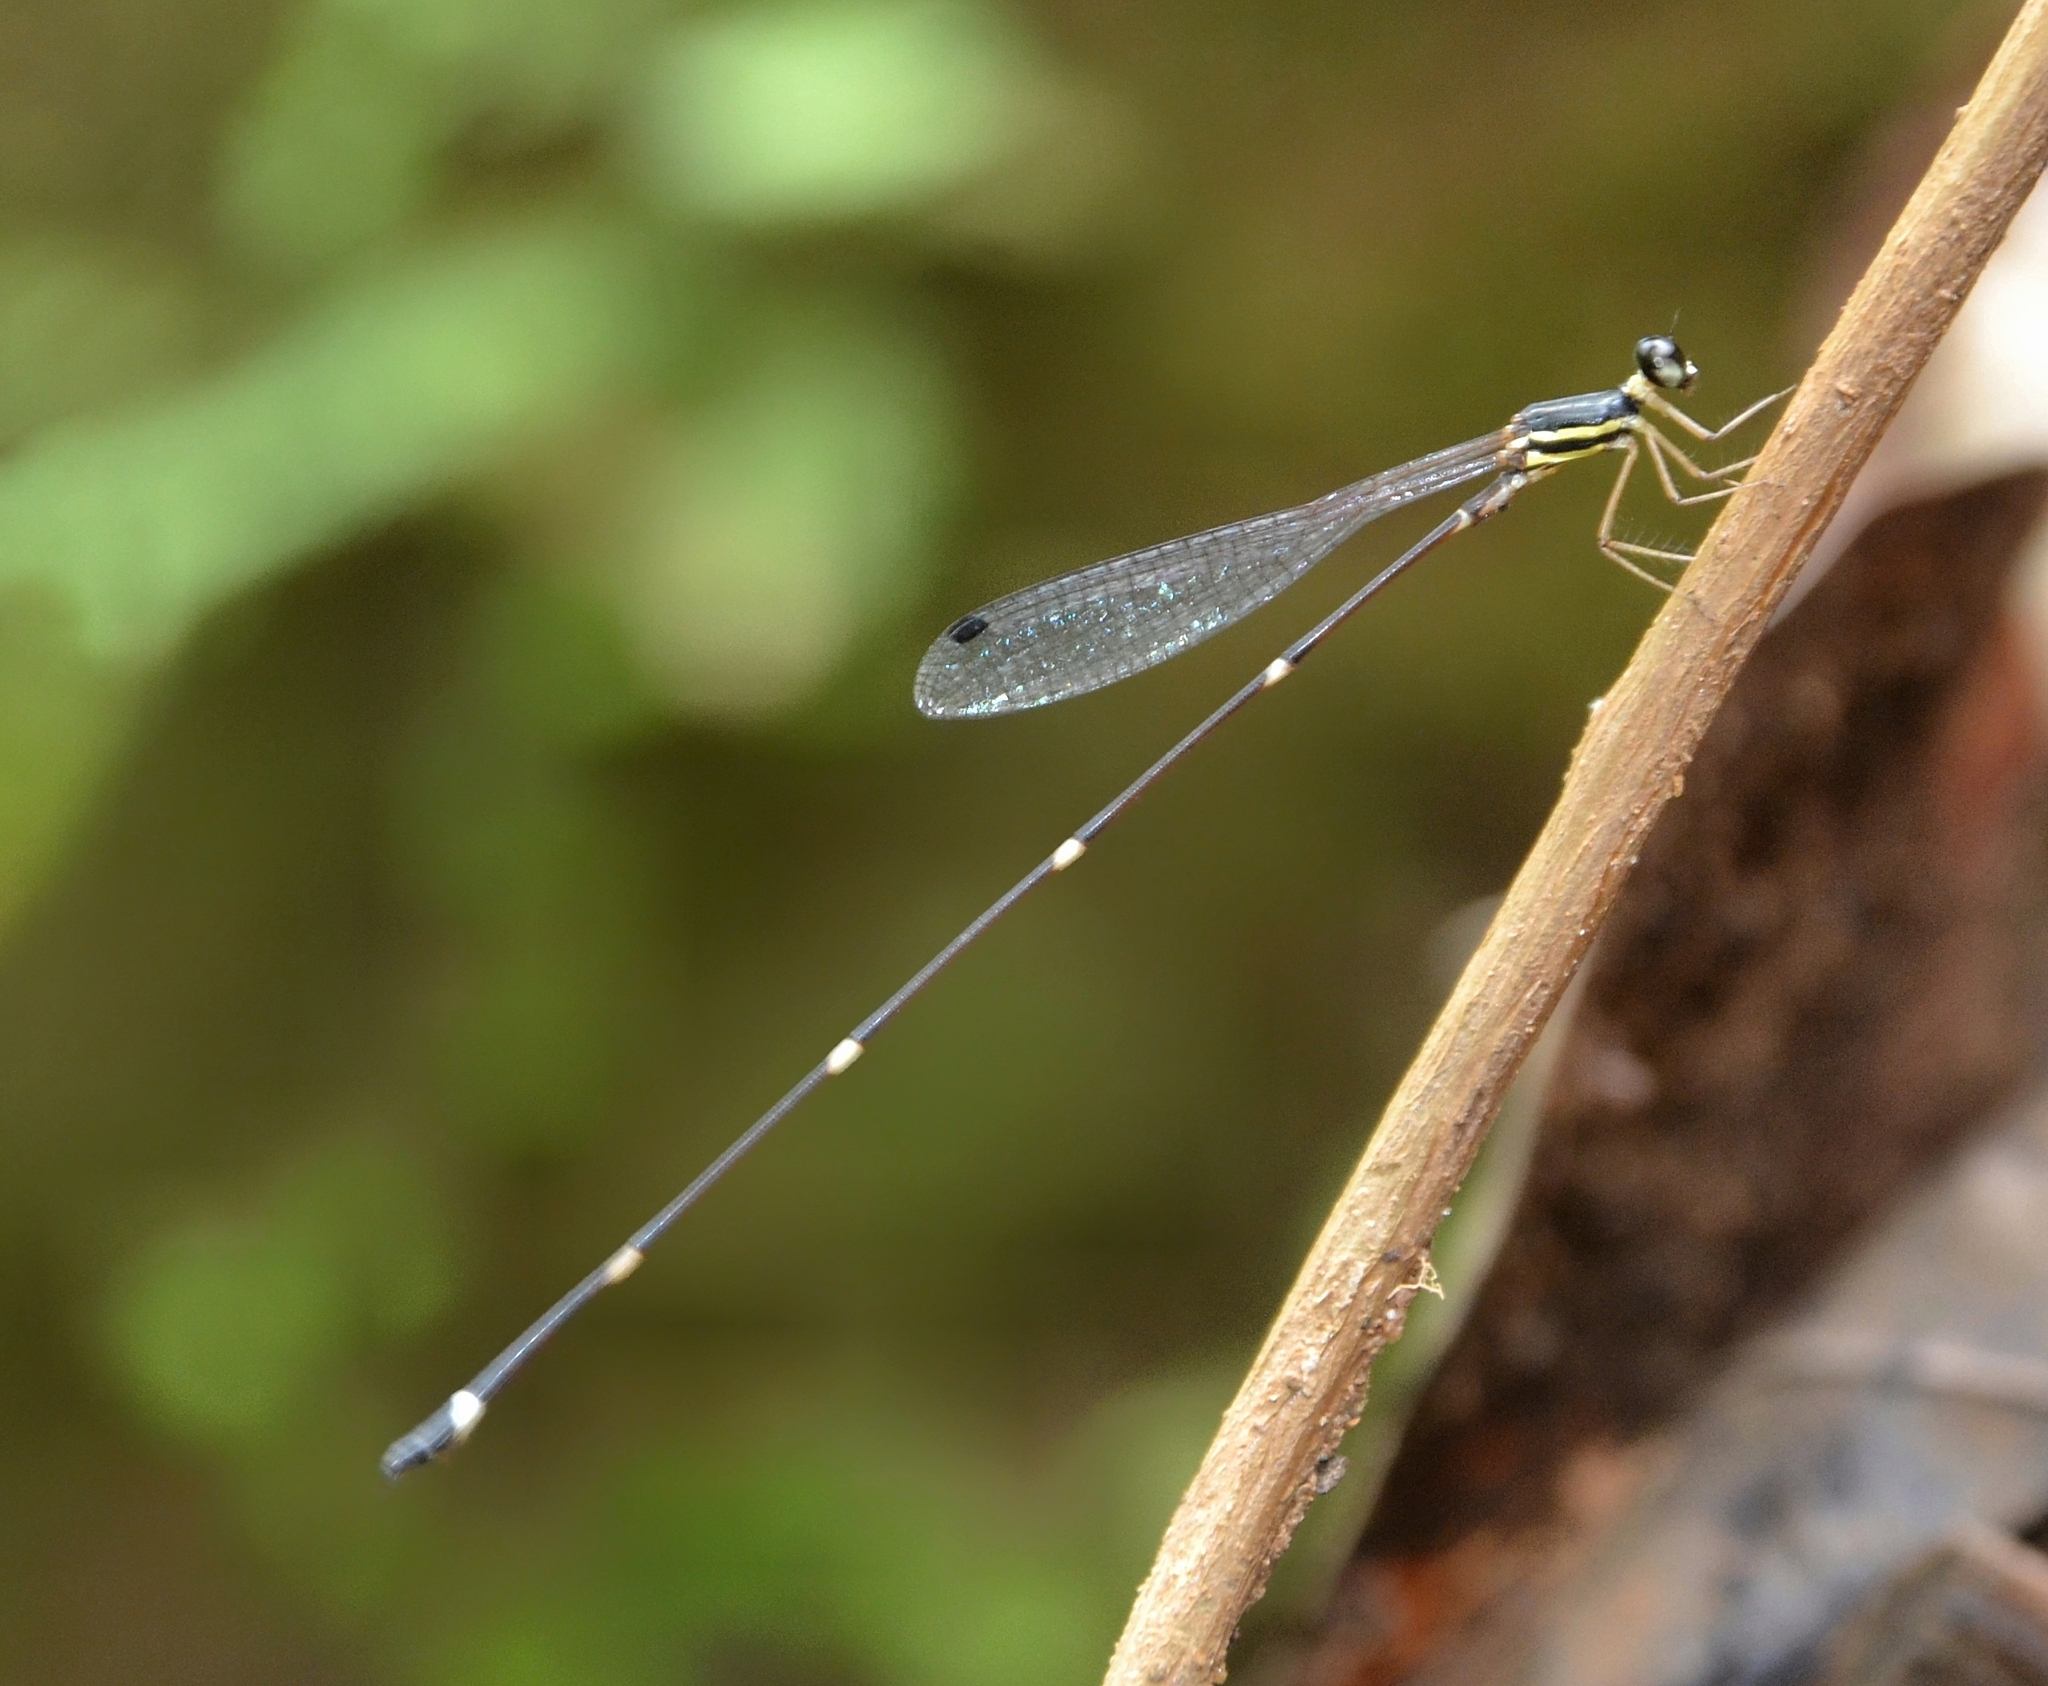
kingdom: Animalia
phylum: Arthropoda
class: Insecta
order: Odonata
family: Platystictidae
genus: Protosticta
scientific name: Protosticta gravelyi
